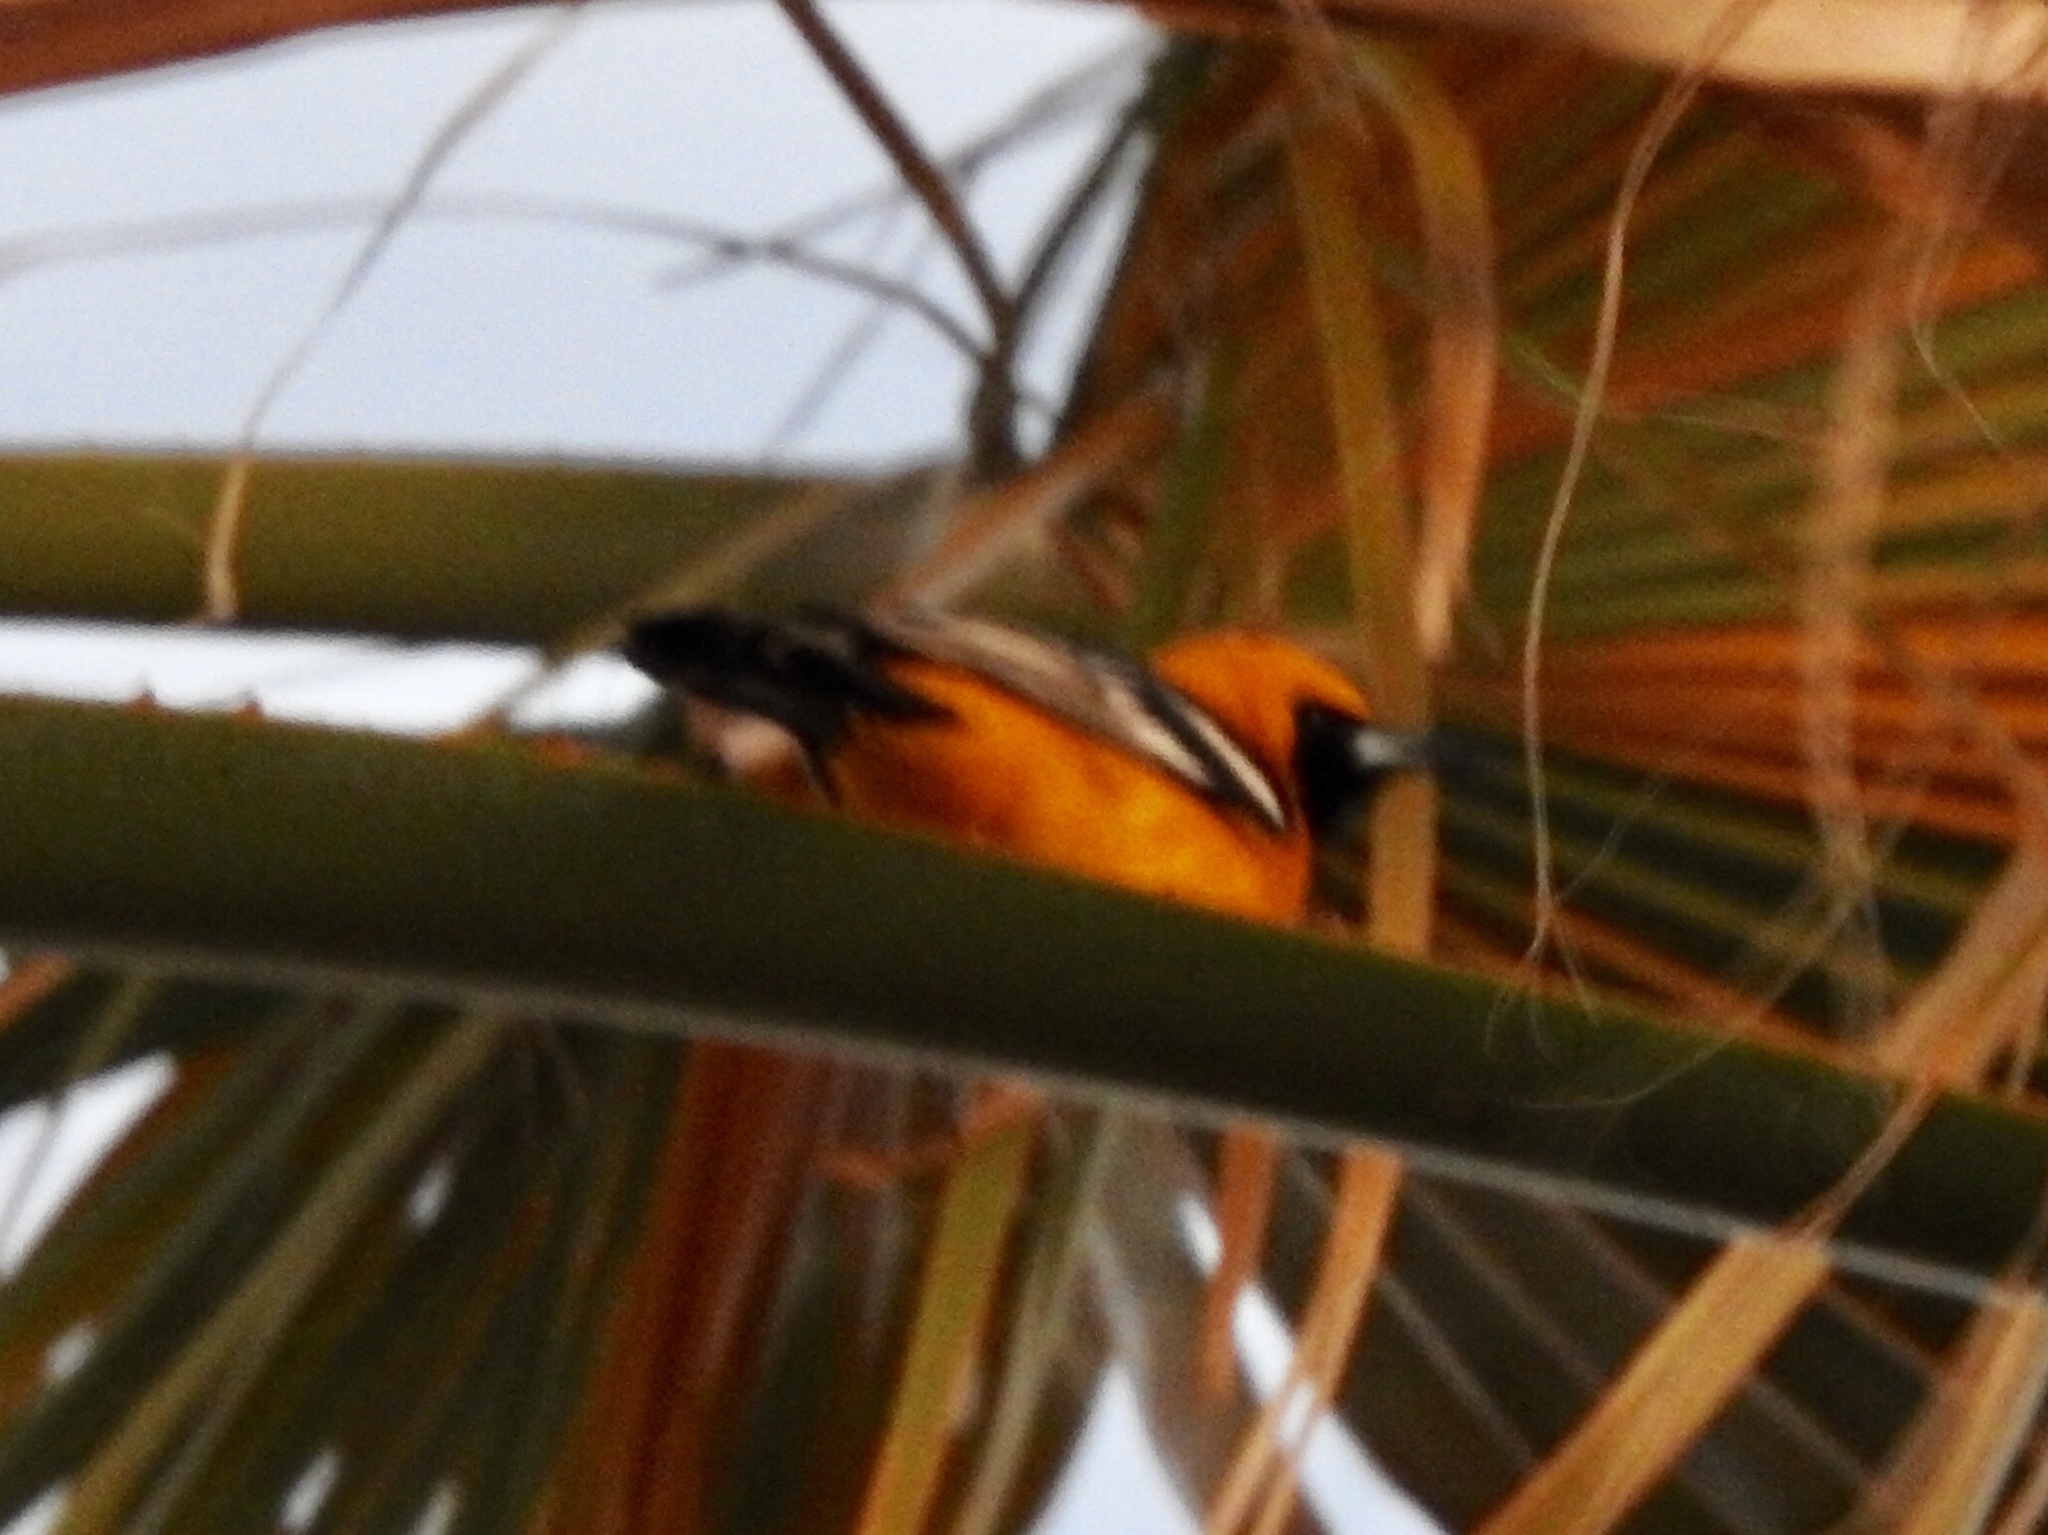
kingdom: Animalia
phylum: Chordata
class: Aves
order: Passeriformes
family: Icteridae
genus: Icterus
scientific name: Icterus cucullatus
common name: Hooded oriole
